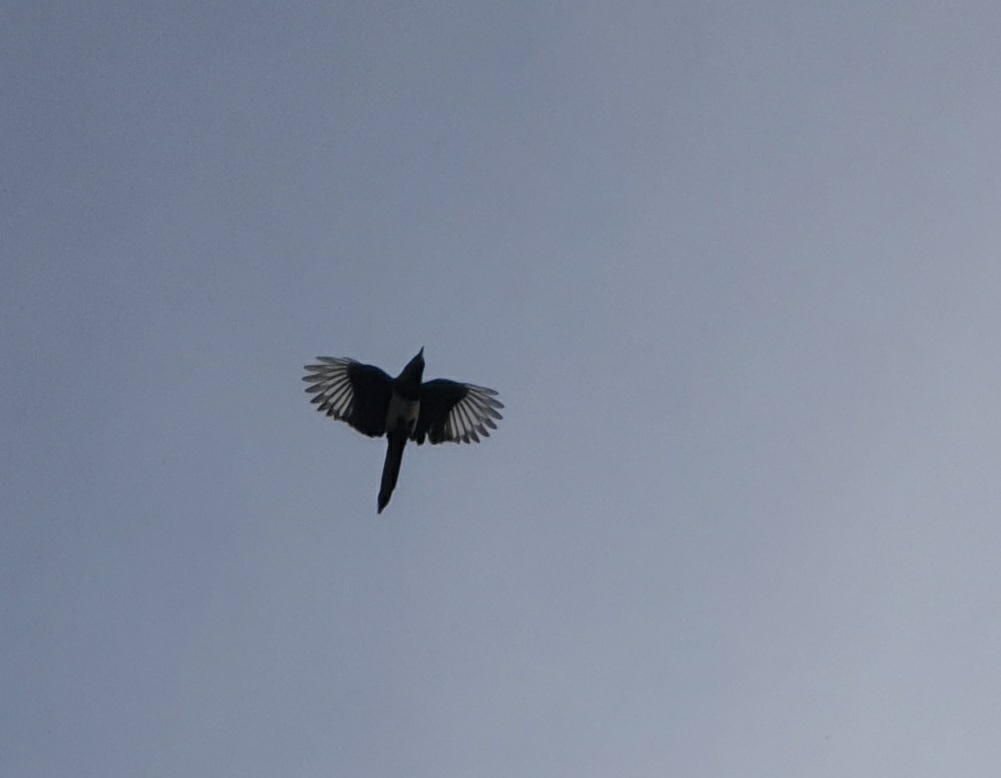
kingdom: Animalia
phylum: Chordata
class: Aves
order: Passeriformes
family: Corvidae
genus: Pica
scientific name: Pica pica
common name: Eurasian magpie
